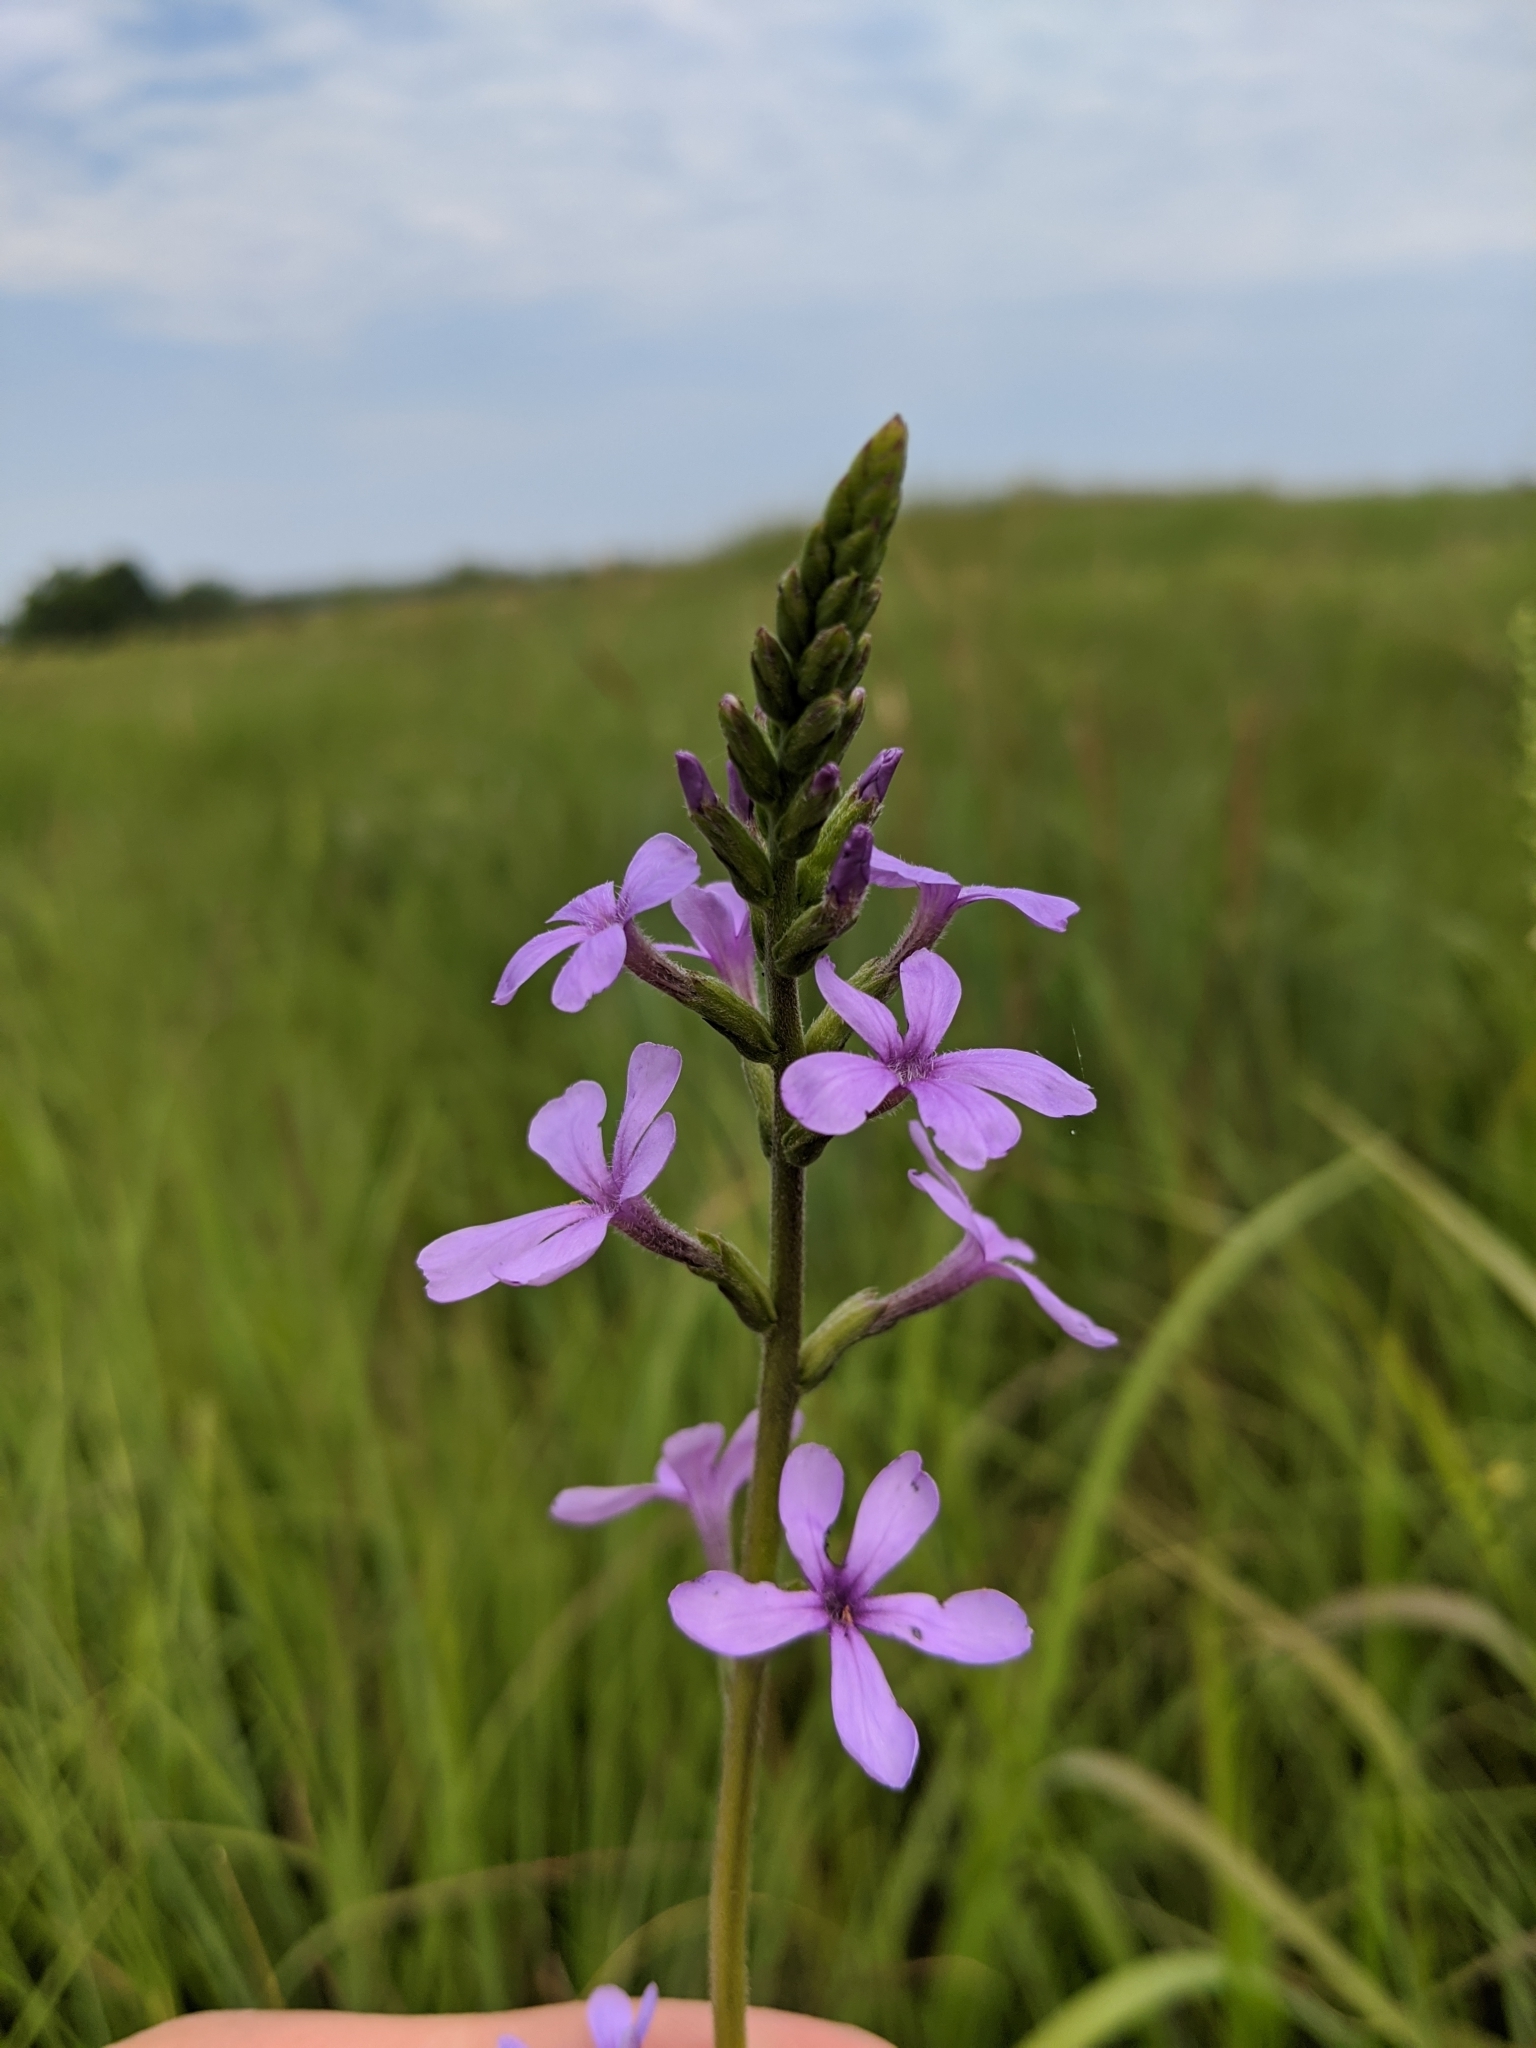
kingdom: Plantae
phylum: Tracheophyta
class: Magnoliopsida
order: Lamiales
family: Orobanchaceae
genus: Buchnera
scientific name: Buchnera americana
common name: American bluehearts
